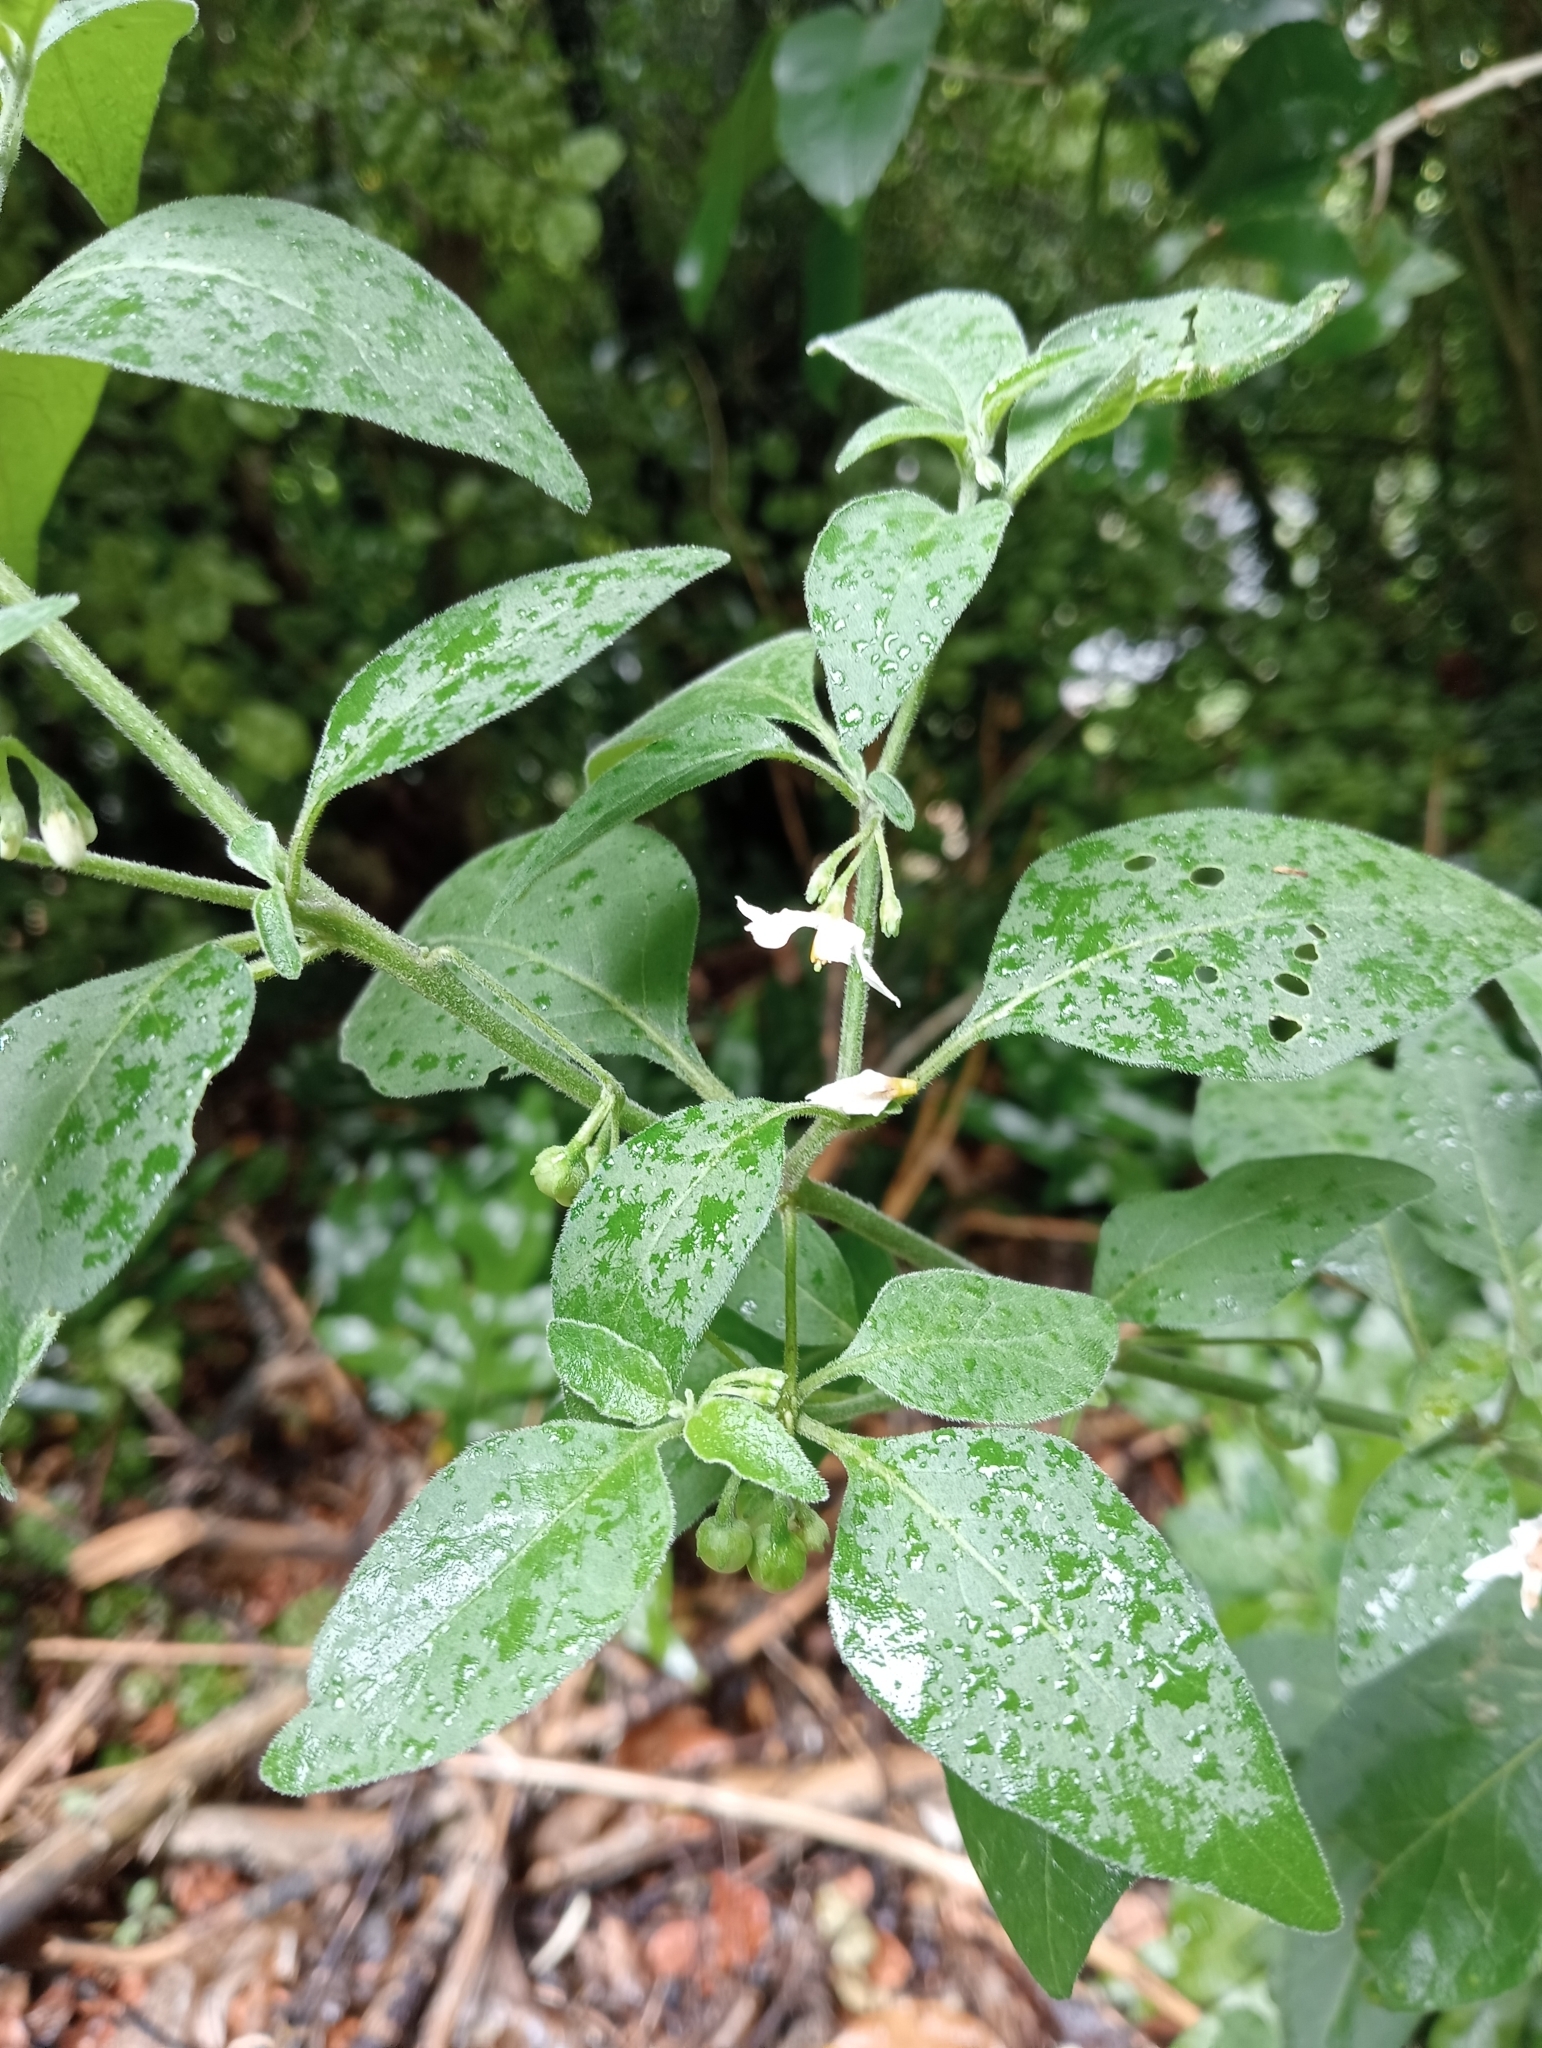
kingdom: Plantae
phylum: Tracheophyta
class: Magnoliopsida
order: Solanales
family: Solanaceae
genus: Solanum
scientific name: Solanum chenopodioides
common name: Tall nightshade
